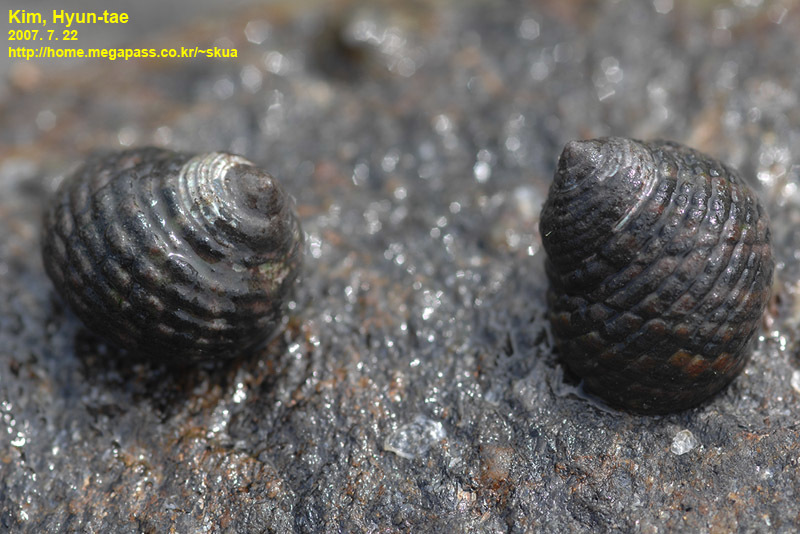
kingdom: Animalia
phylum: Mollusca
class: Gastropoda
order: Trochida
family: Trochidae
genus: Monodonta
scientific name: Monodonta confusa
